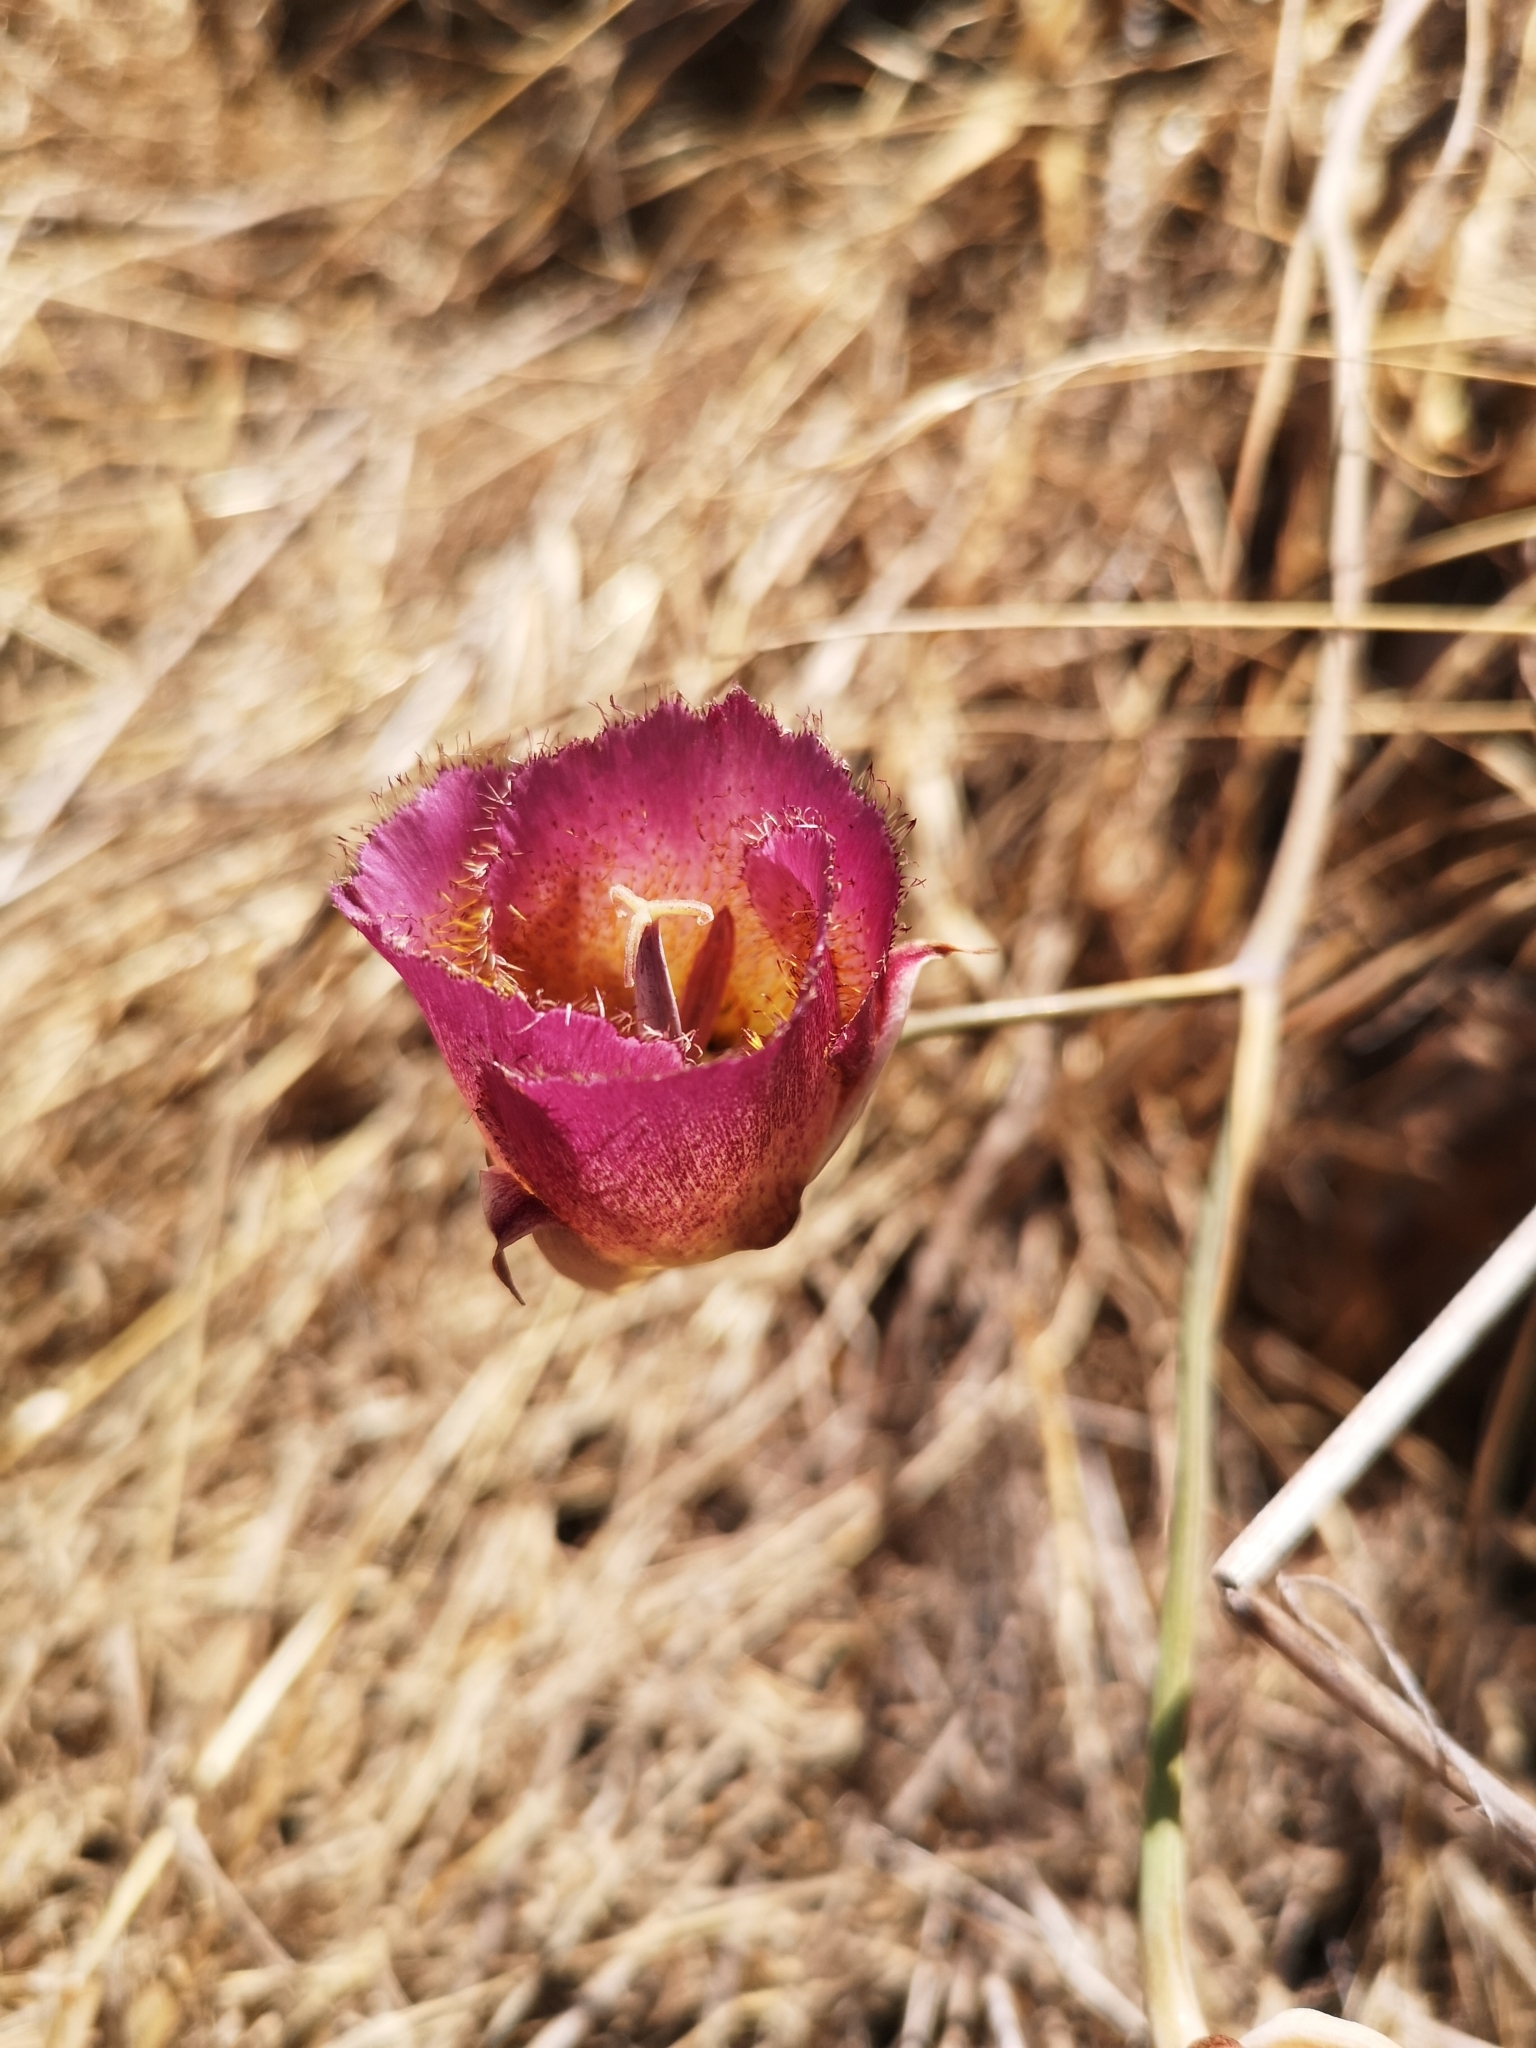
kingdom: Plantae
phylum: Tracheophyta
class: Liliopsida
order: Liliales
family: Liliaceae
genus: Calochortus
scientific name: Calochortus weedii
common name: Weed's mariposa-lily
